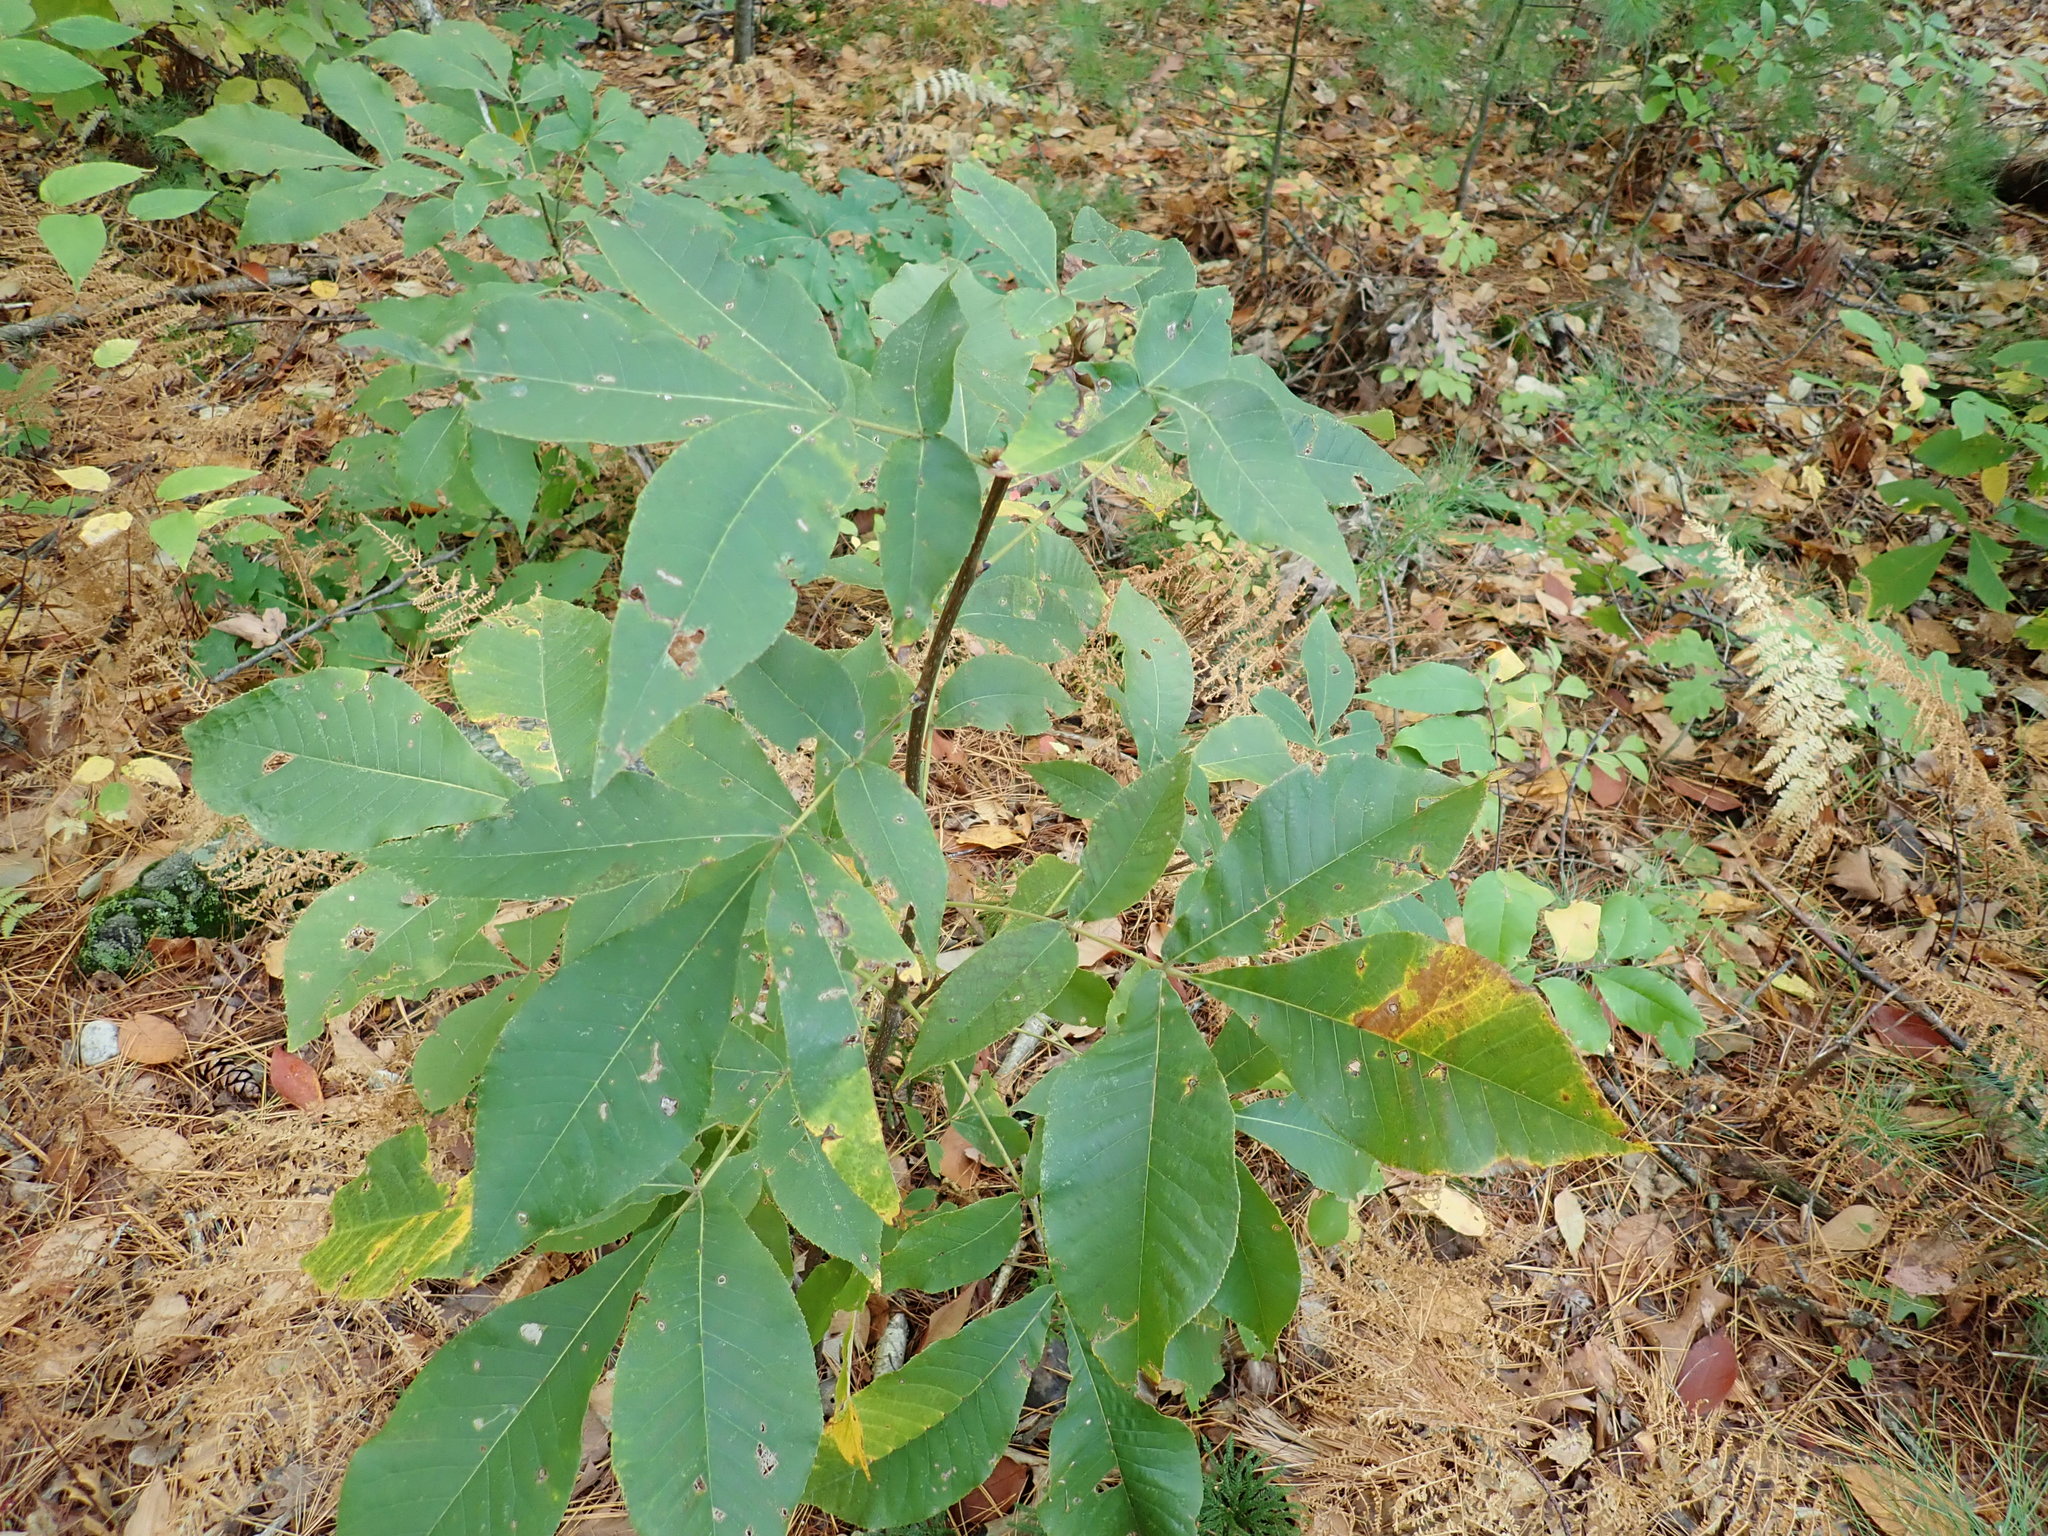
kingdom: Plantae
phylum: Tracheophyta
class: Magnoliopsida
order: Fagales
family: Juglandaceae
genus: Carya
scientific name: Carya
